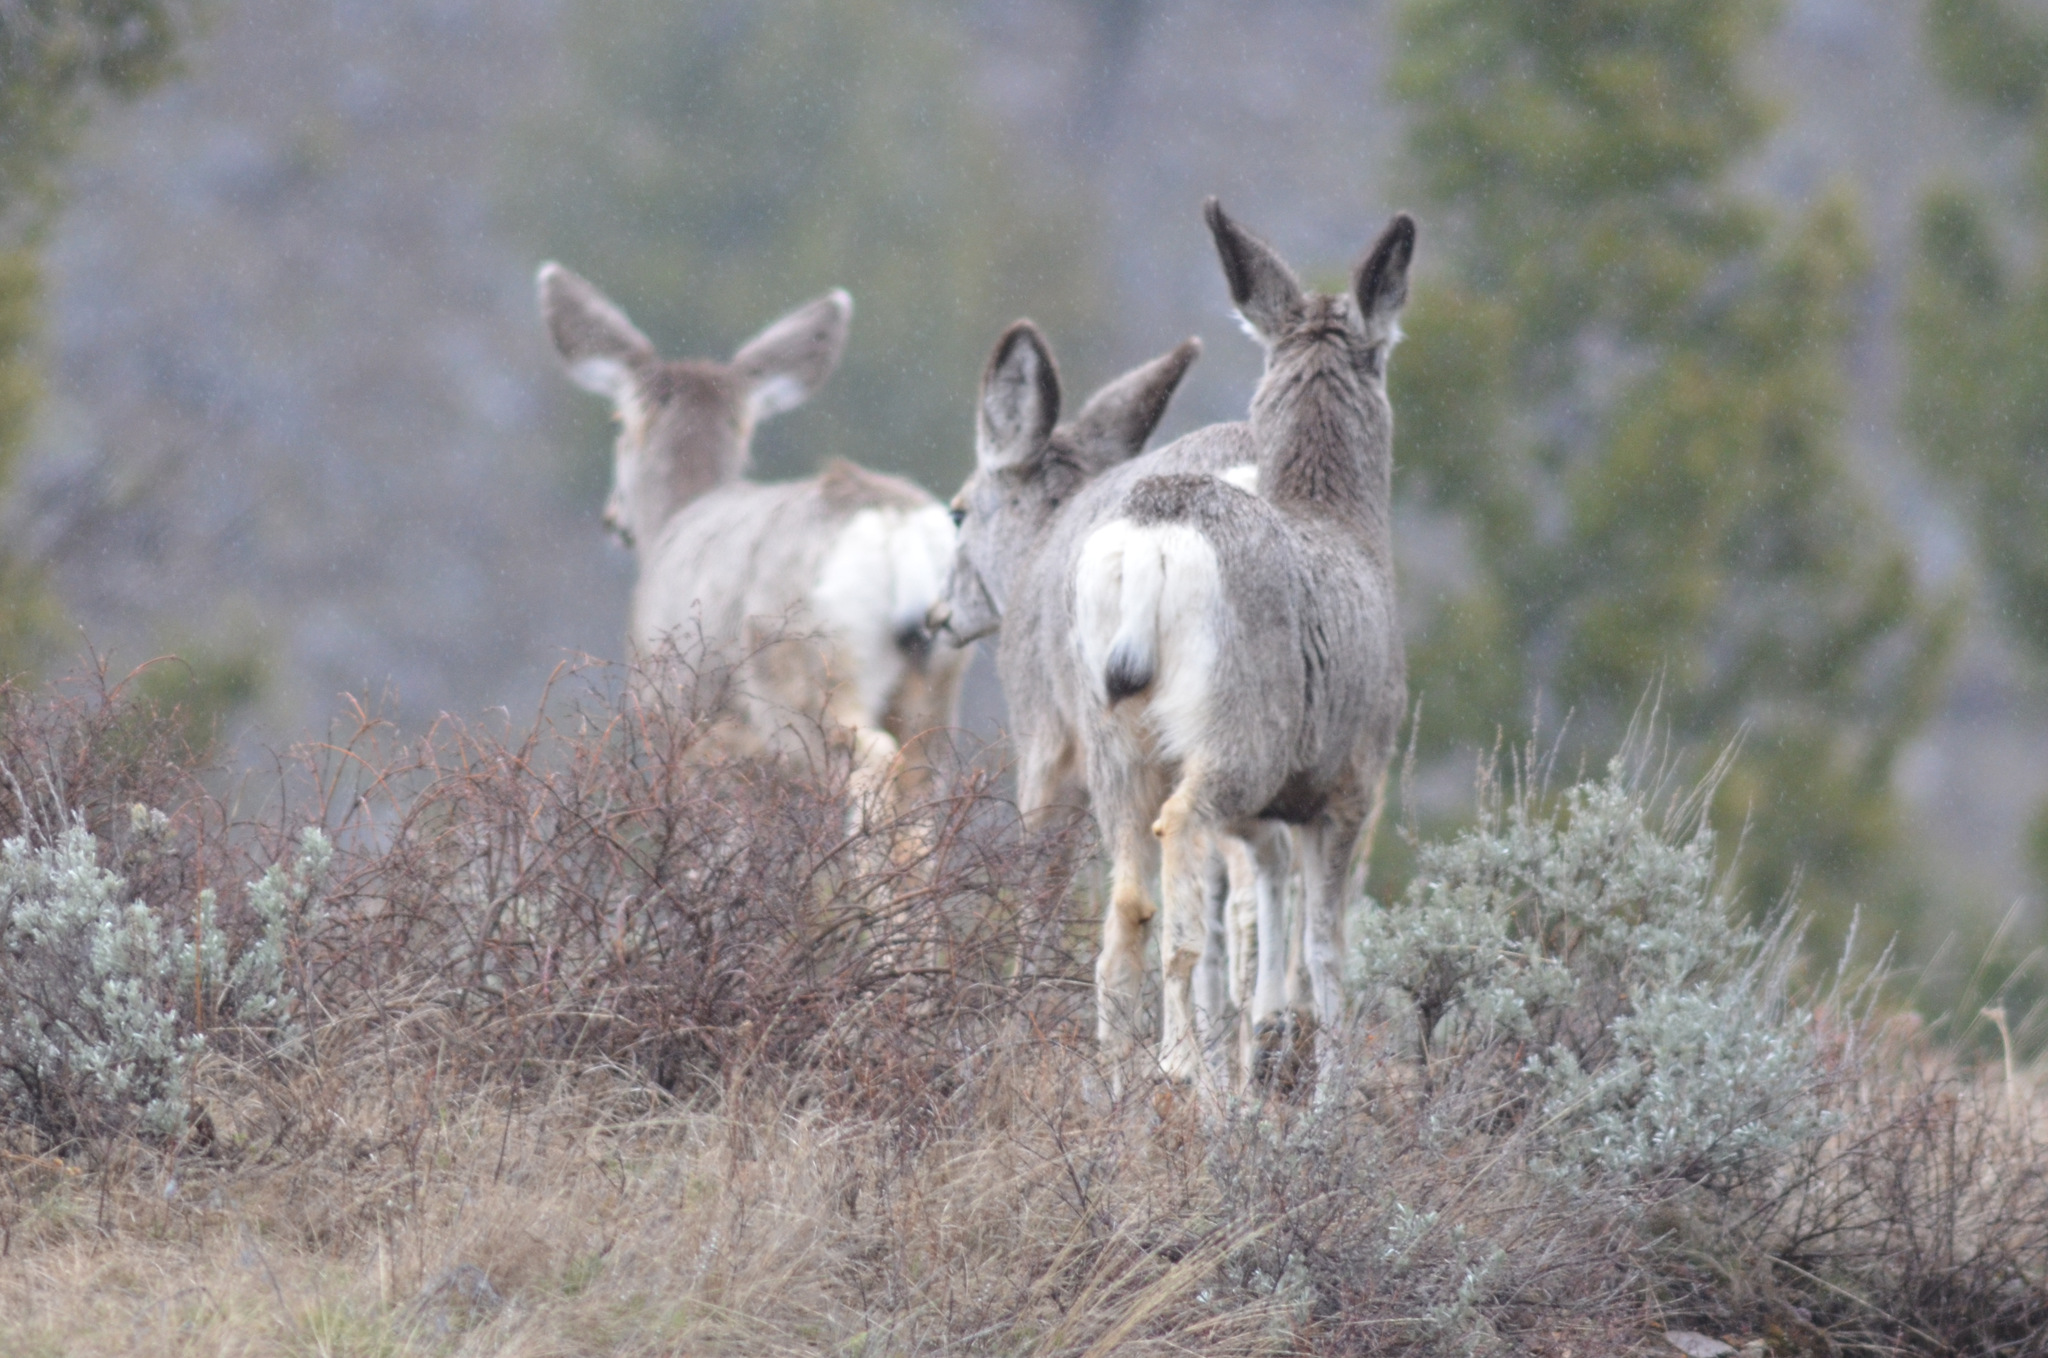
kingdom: Animalia
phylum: Chordata
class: Mammalia
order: Artiodactyla
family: Cervidae
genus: Odocoileus
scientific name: Odocoileus hemionus
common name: Mule deer
